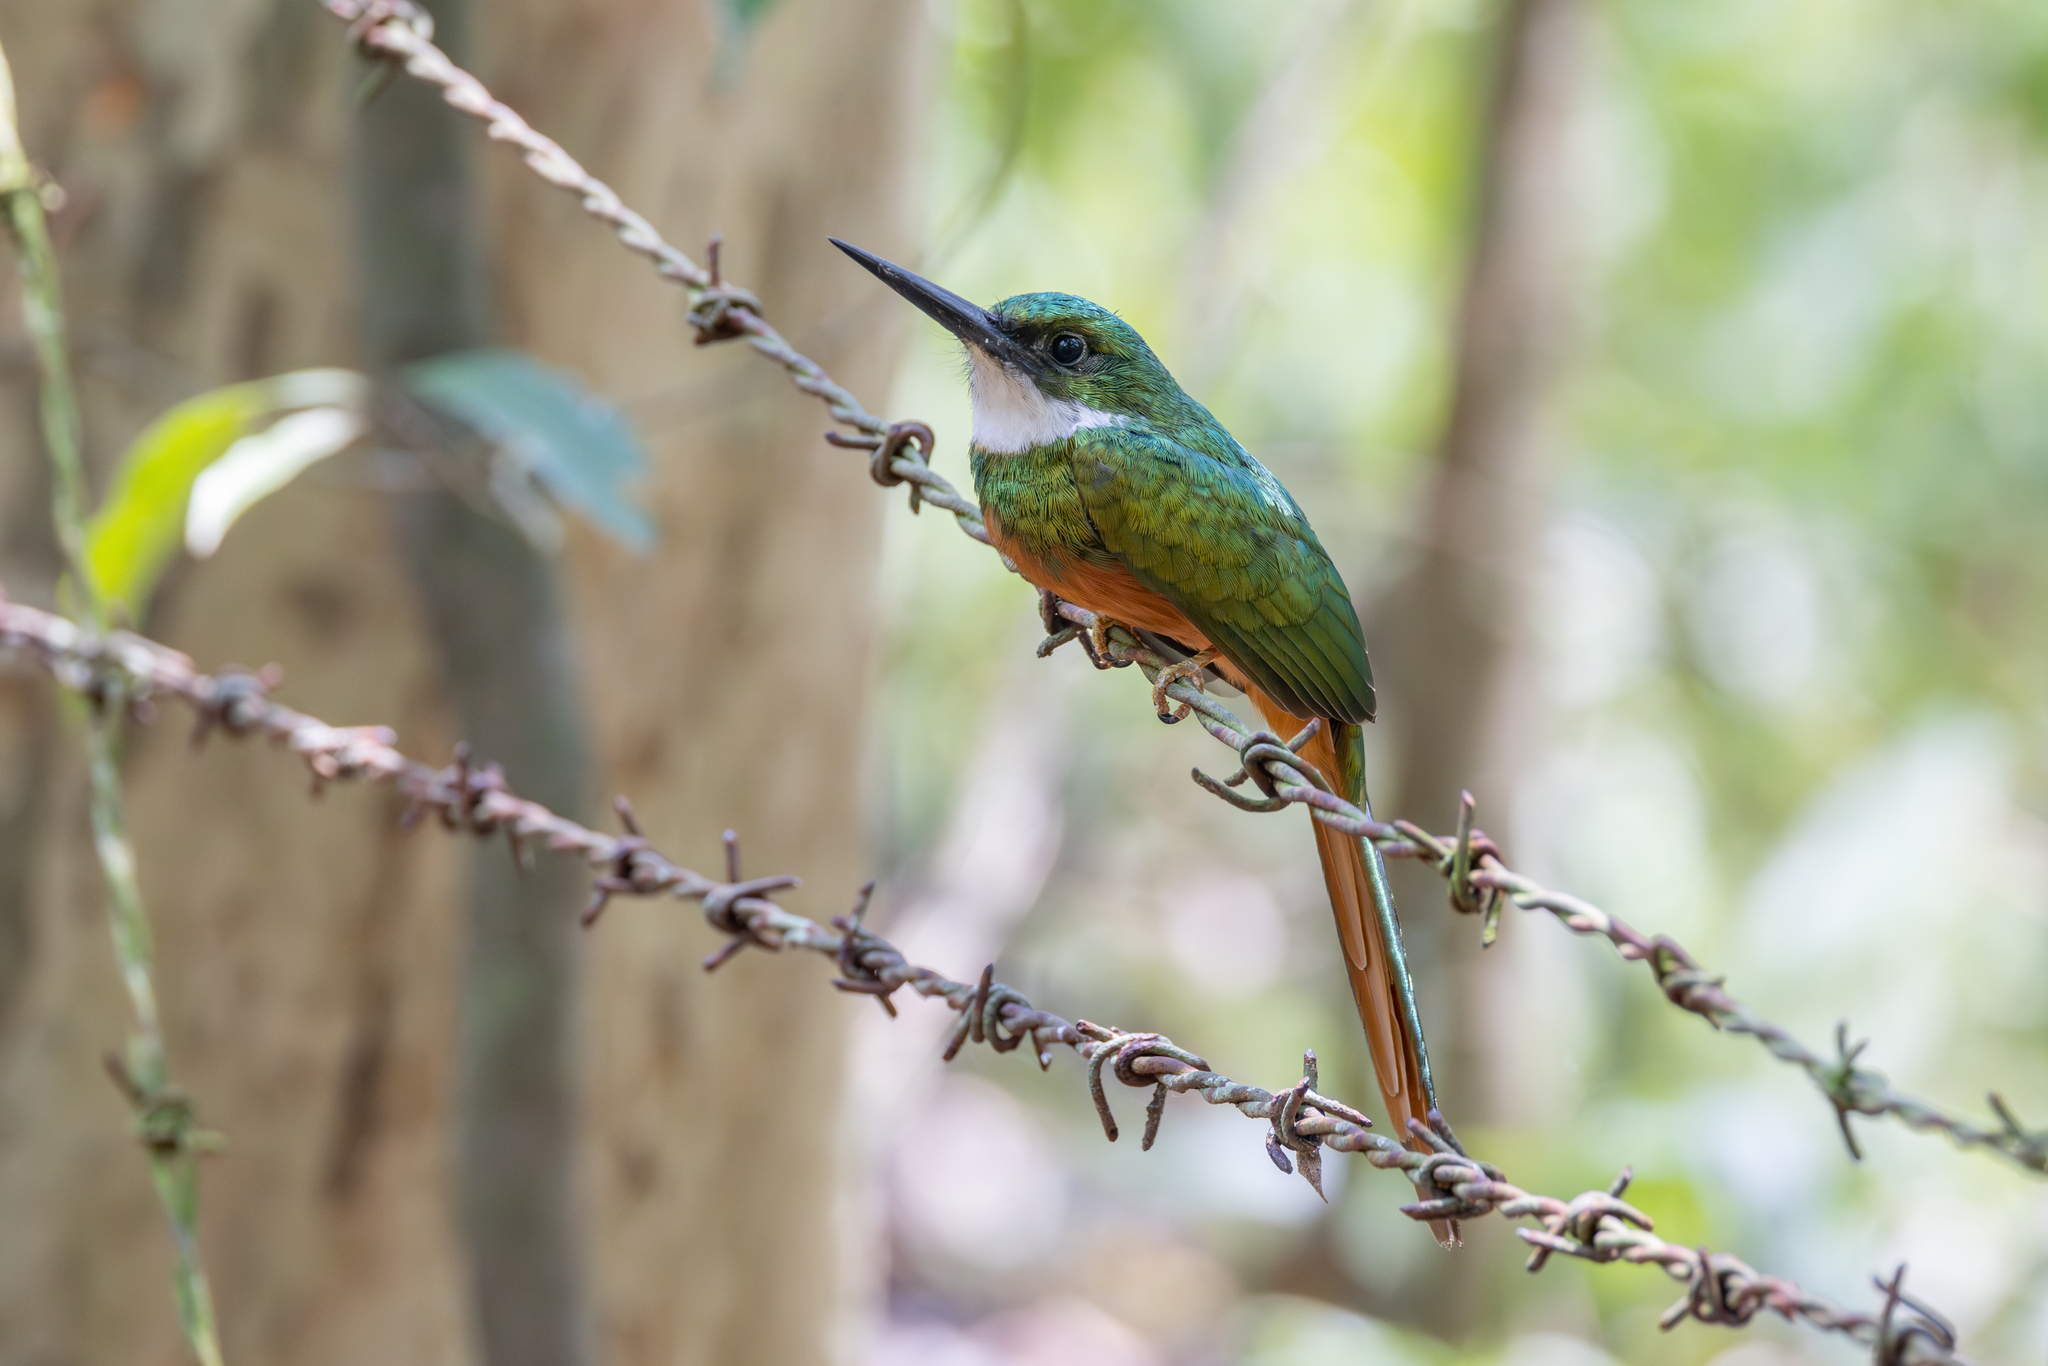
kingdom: Animalia
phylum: Chordata
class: Aves
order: Piciformes
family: Galbulidae
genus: Galbula
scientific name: Galbula ruficauda
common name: Rufous-tailed jacamar
